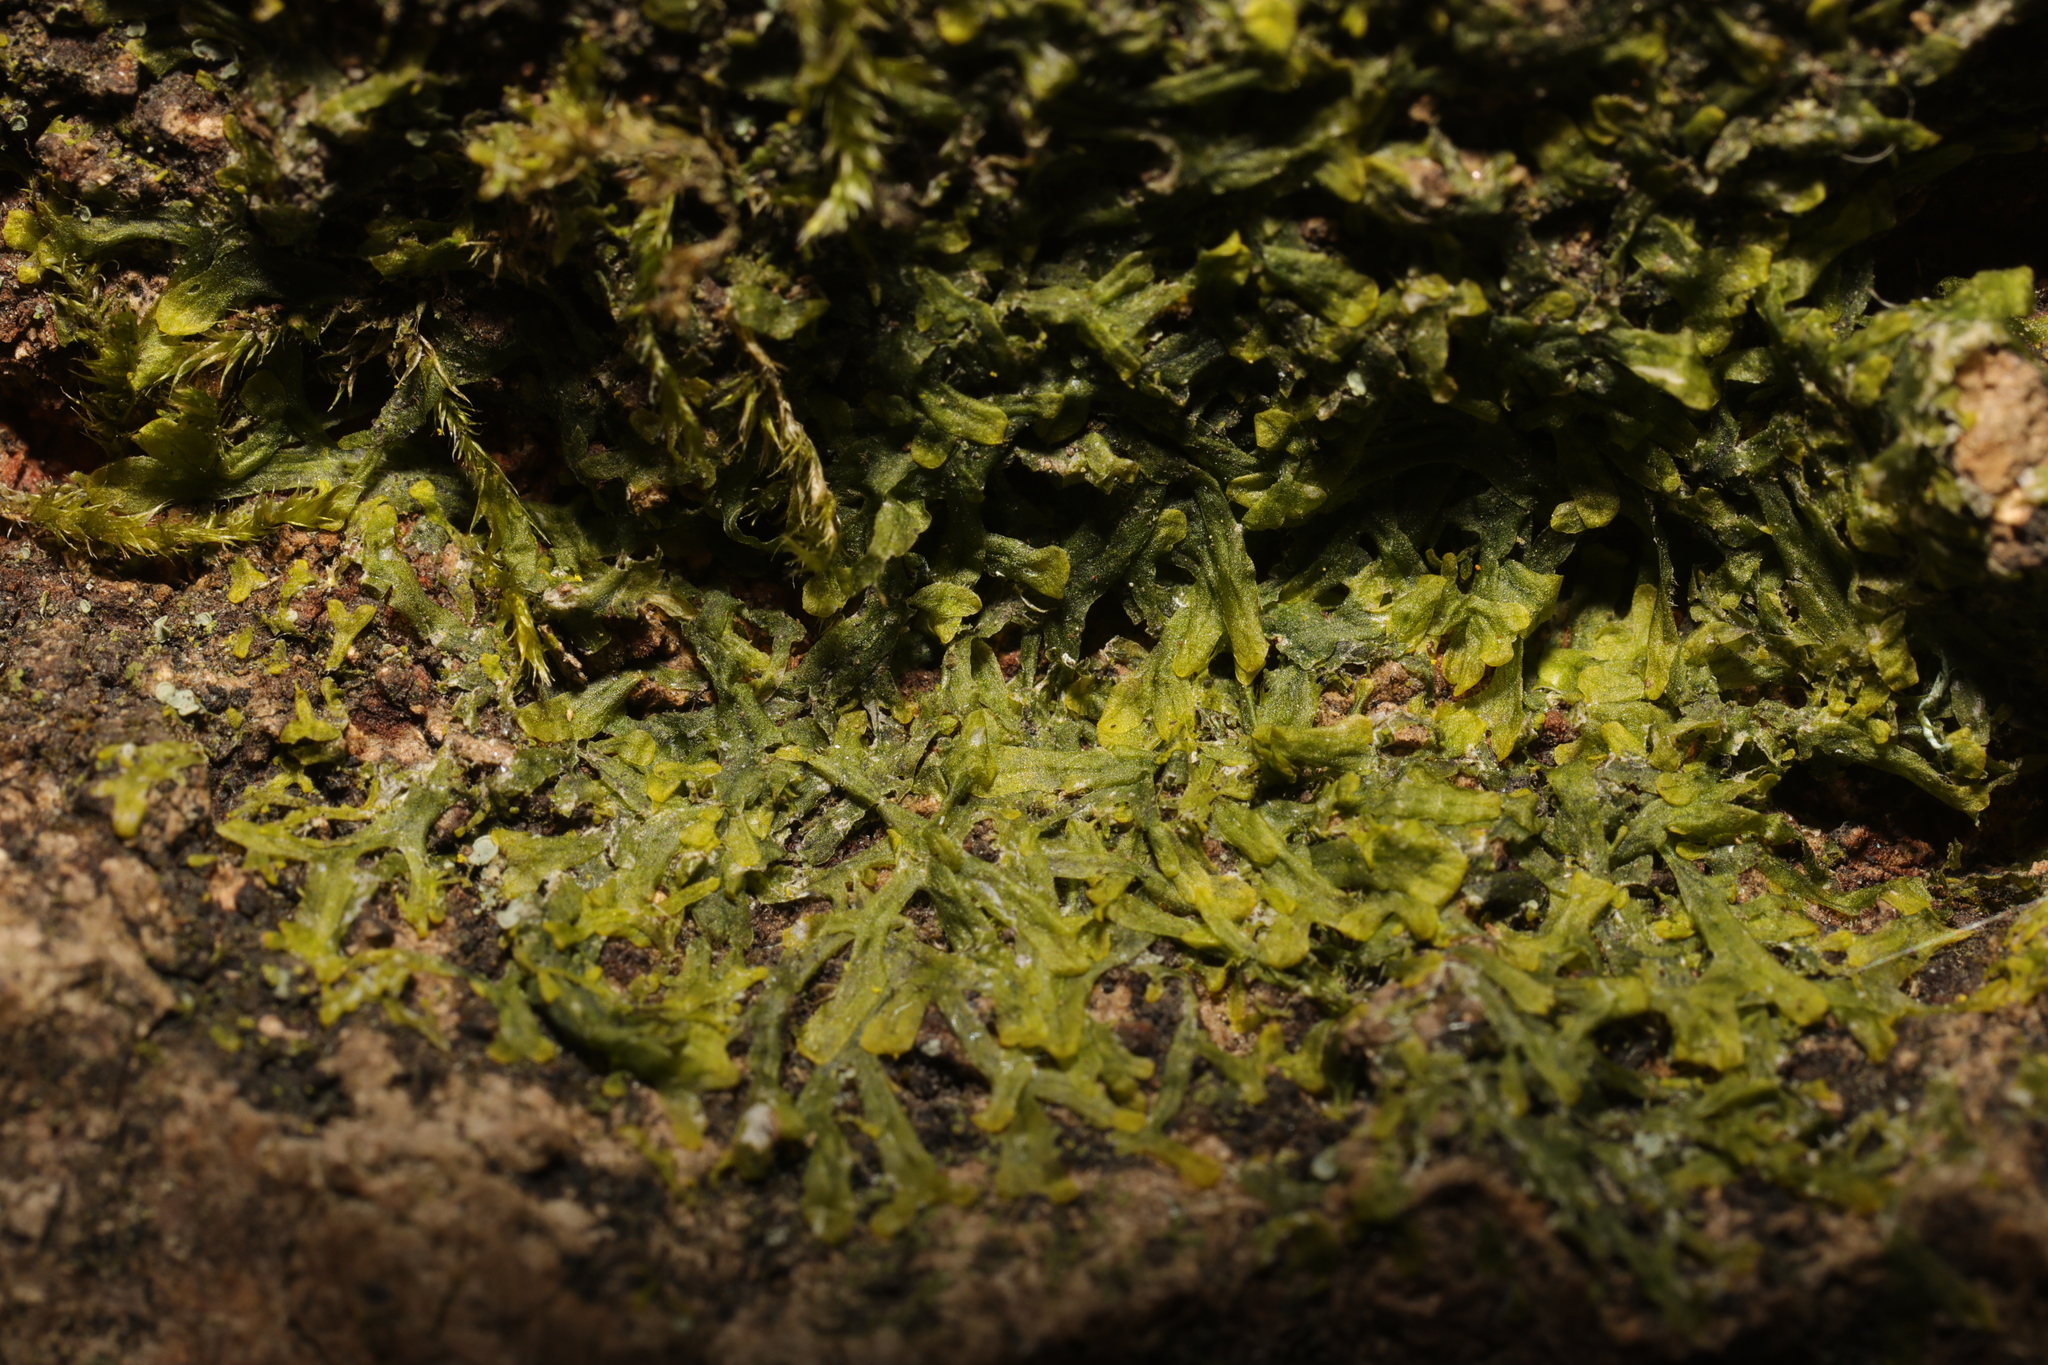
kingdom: Plantae
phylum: Marchantiophyta
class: Jungermanniopsida
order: Metzgeriales
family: Metzgeriaceae
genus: Metzgeria
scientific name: Metzgeria furcata
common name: Forked veilwort
